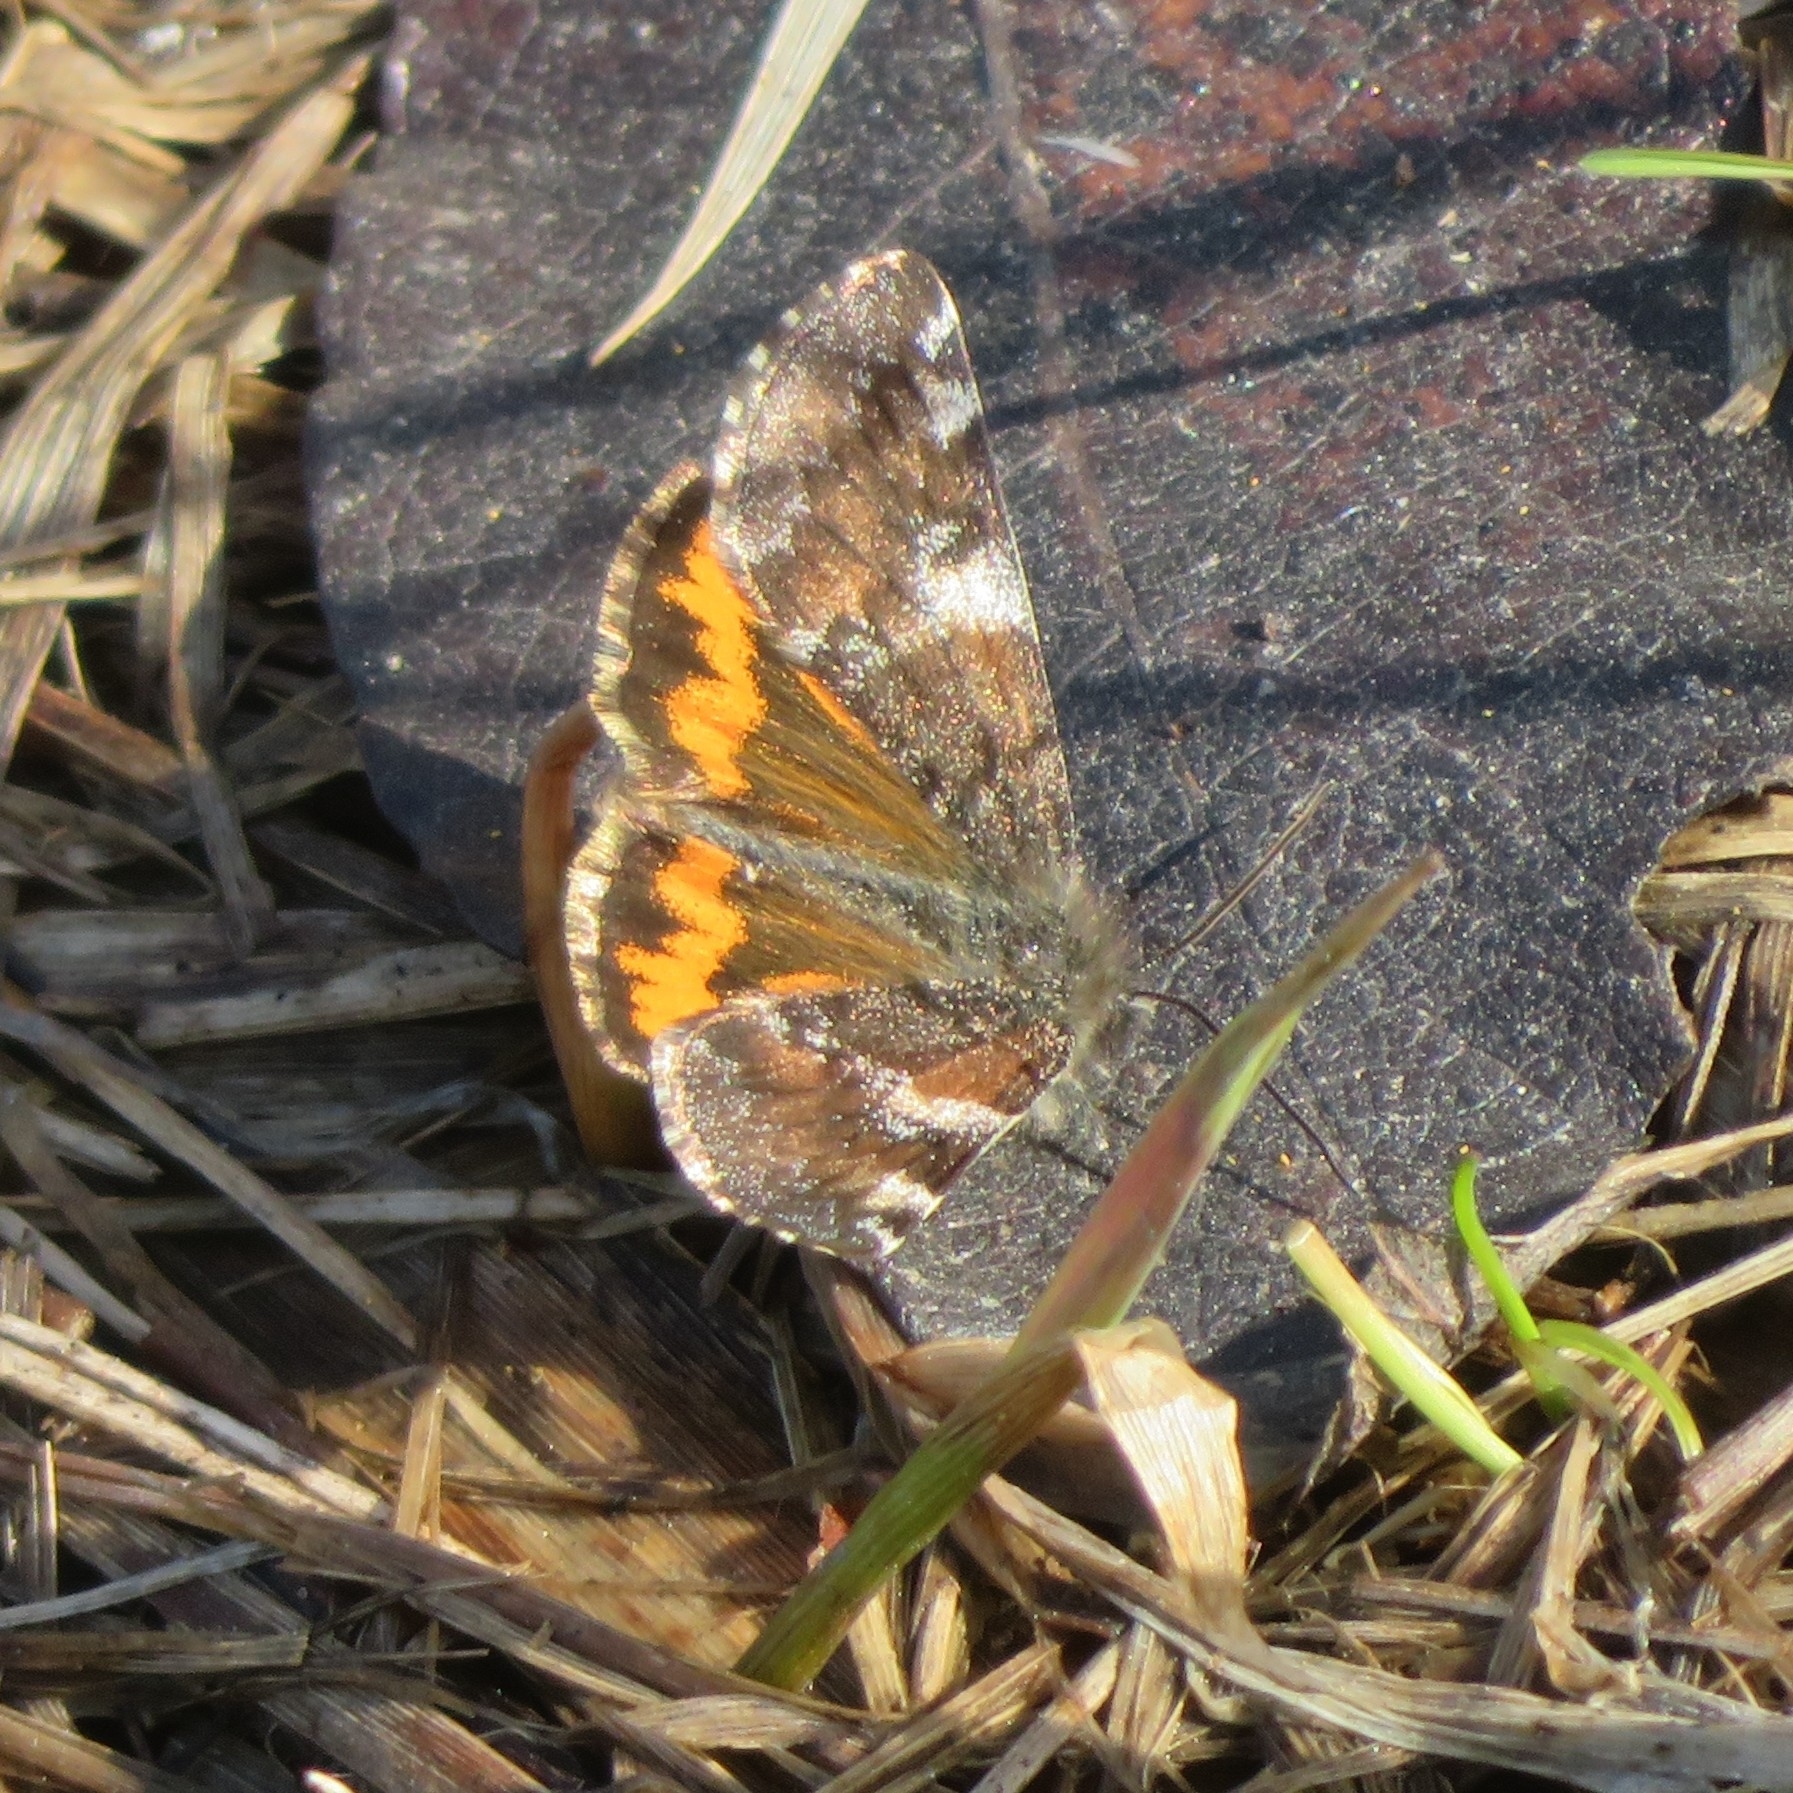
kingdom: Animalia
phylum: Arthropoda
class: Insecta
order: Lepidoptera
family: Geometridae
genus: Archiearis
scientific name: Archiearis parthenias
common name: Orange underwing
